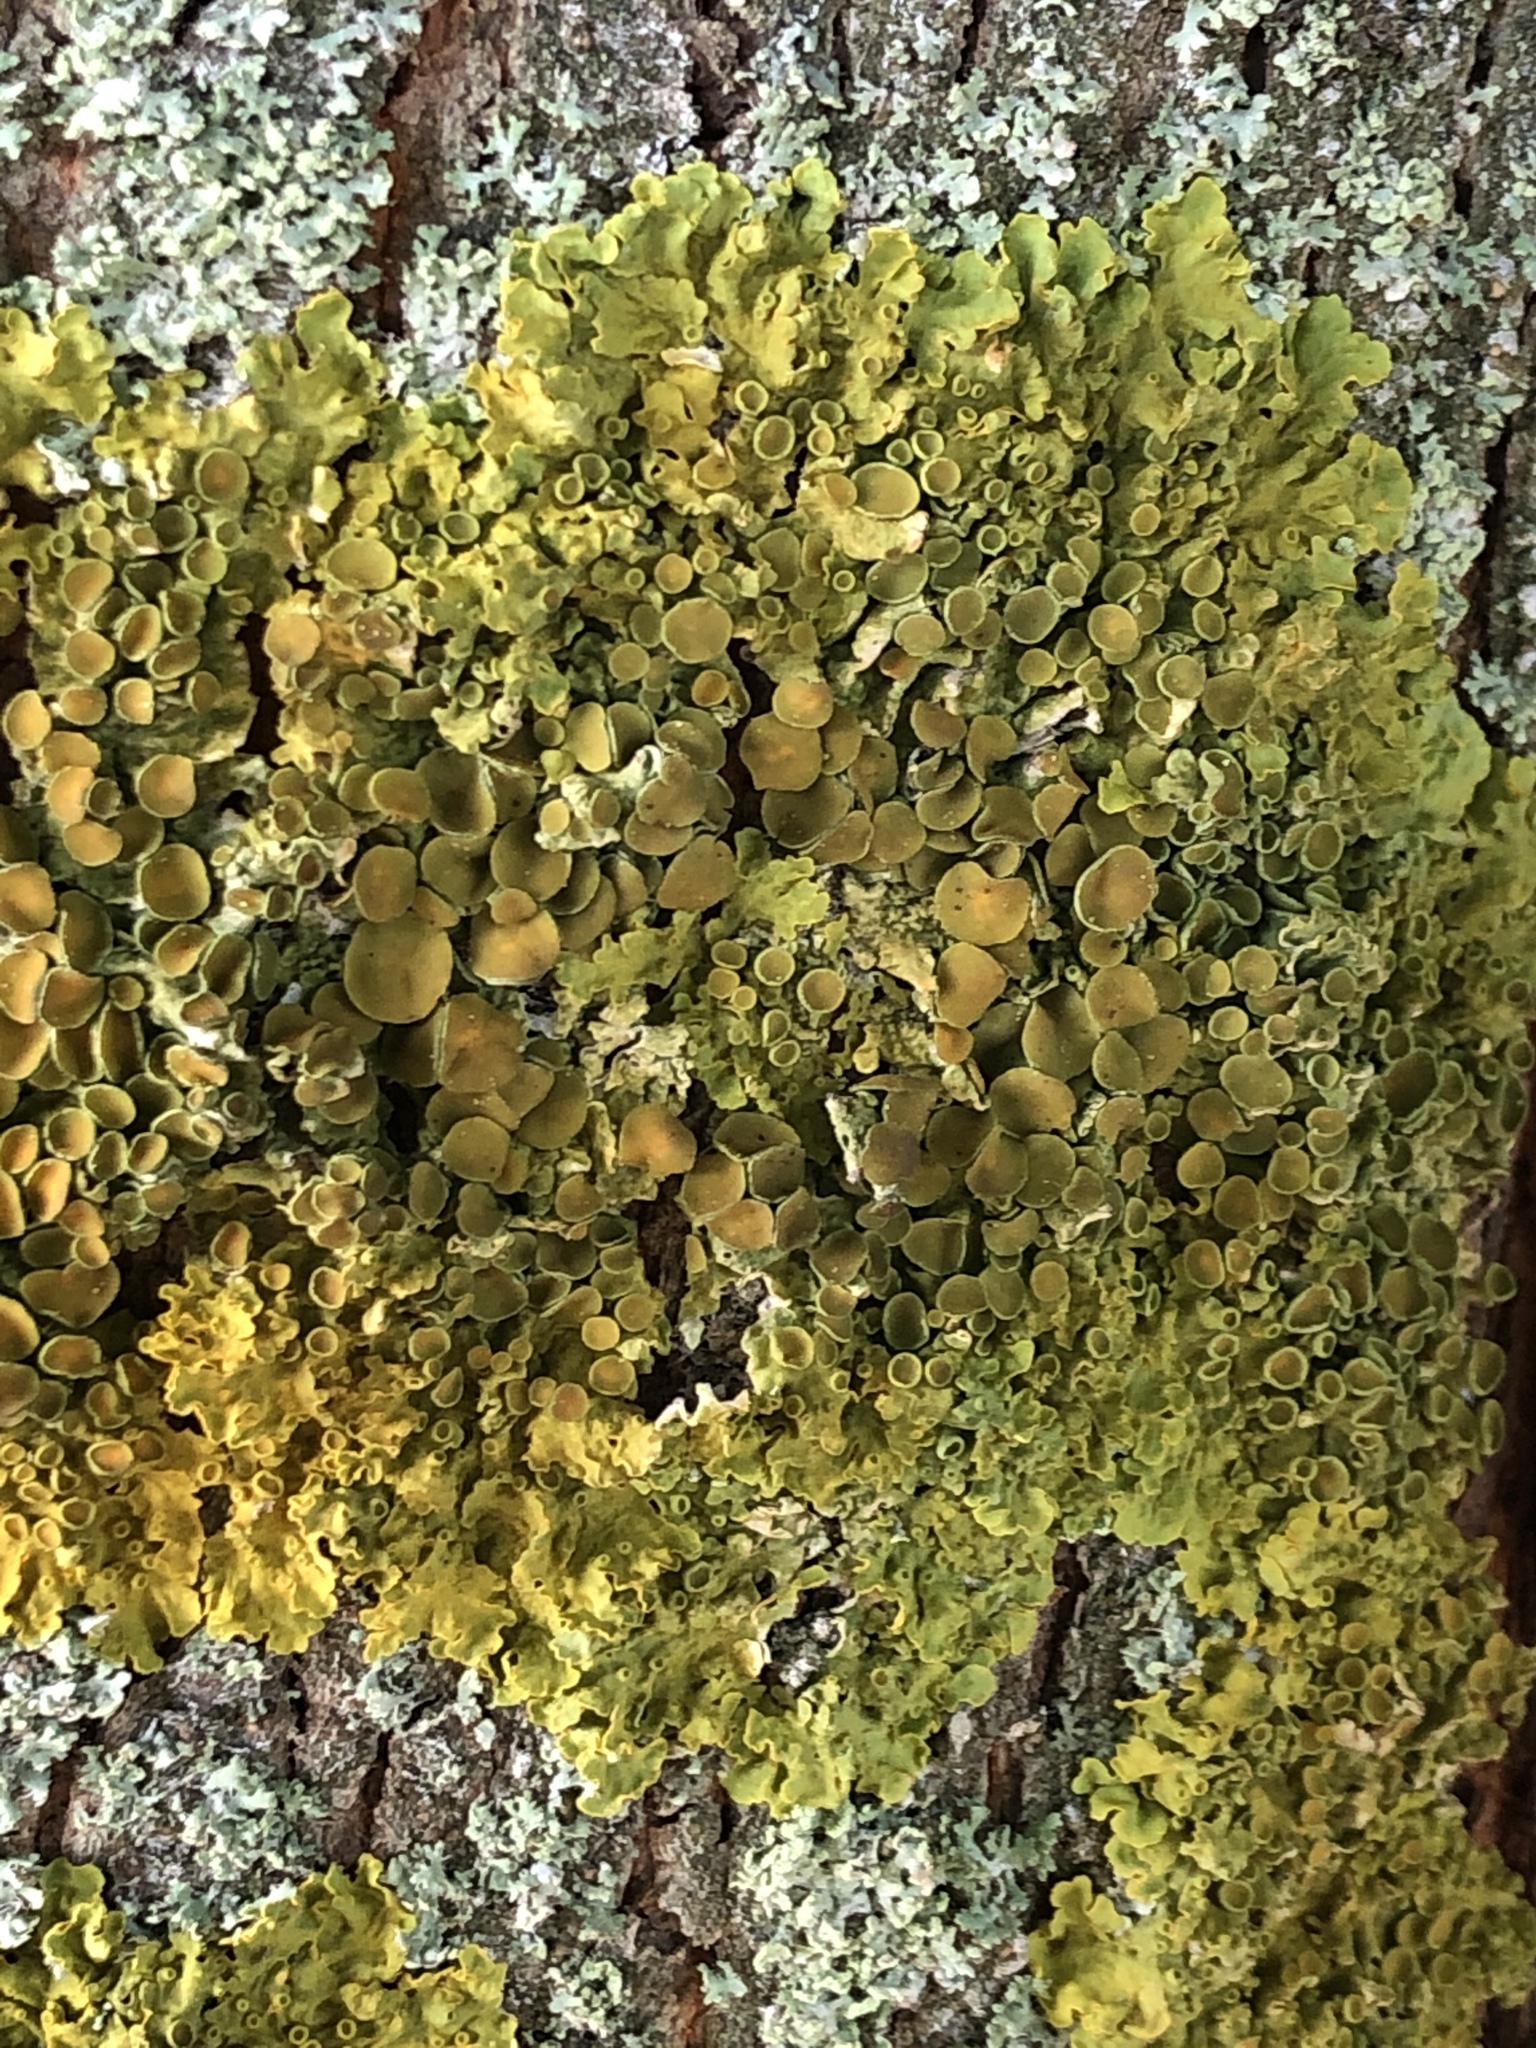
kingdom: Fungi
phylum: Ascomycota
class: Lecanoromycetes
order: Teloschistales
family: Teloschistaceae
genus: Xanthoria
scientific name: Xanthoria parietina
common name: Common orange lichen
